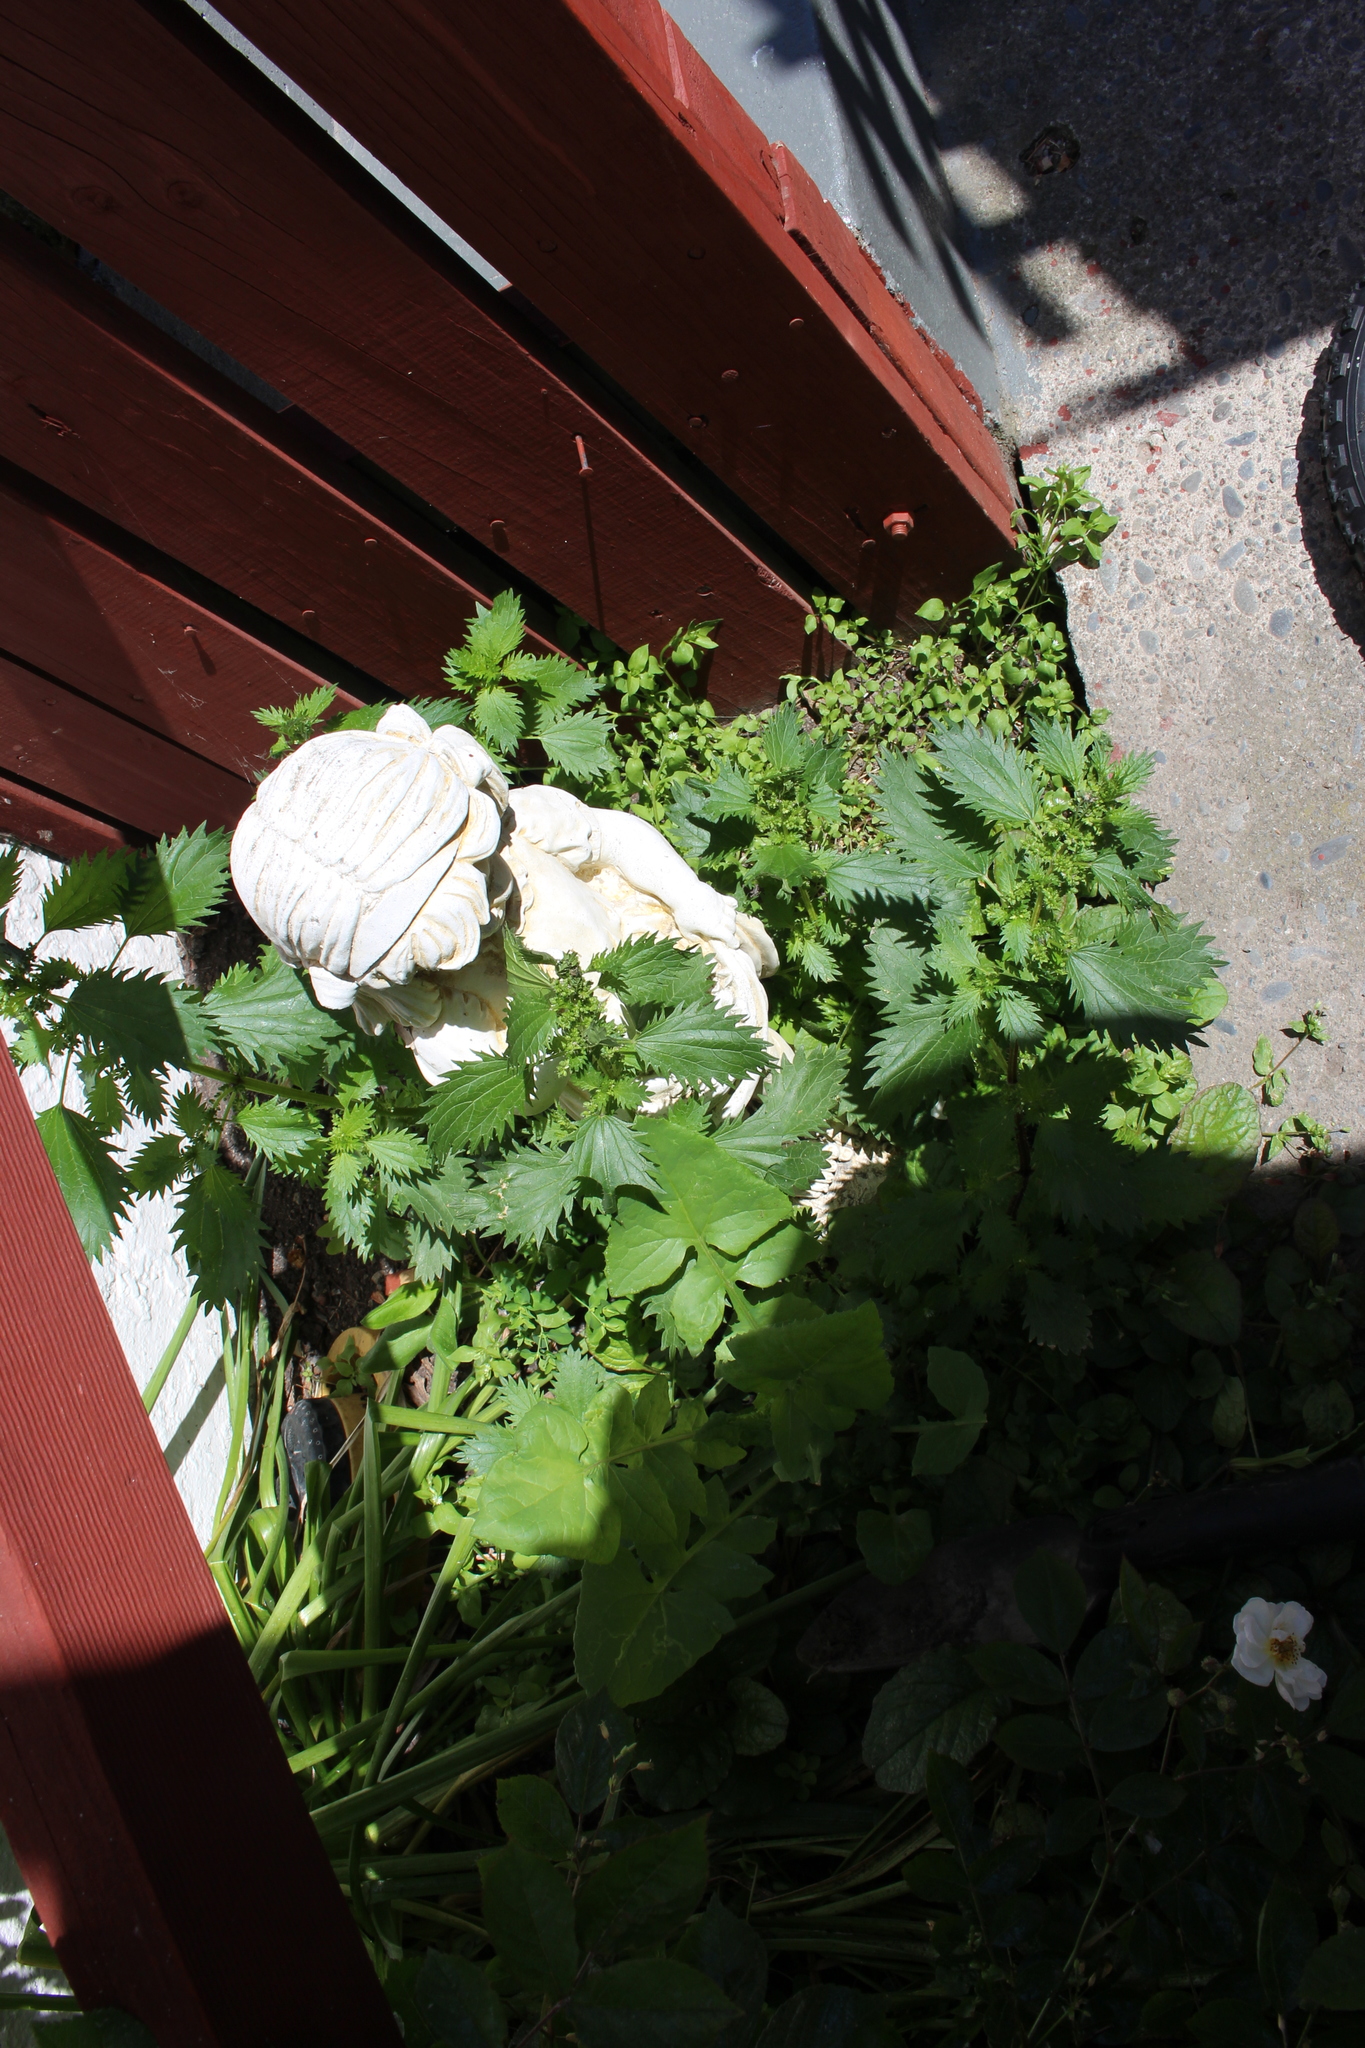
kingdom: Animalia
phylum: Arthropoda
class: Insecta
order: Lepidoptera
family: Nymphalidae
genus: Vanessa
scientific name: Vanessa itea
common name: Yellow admiral
